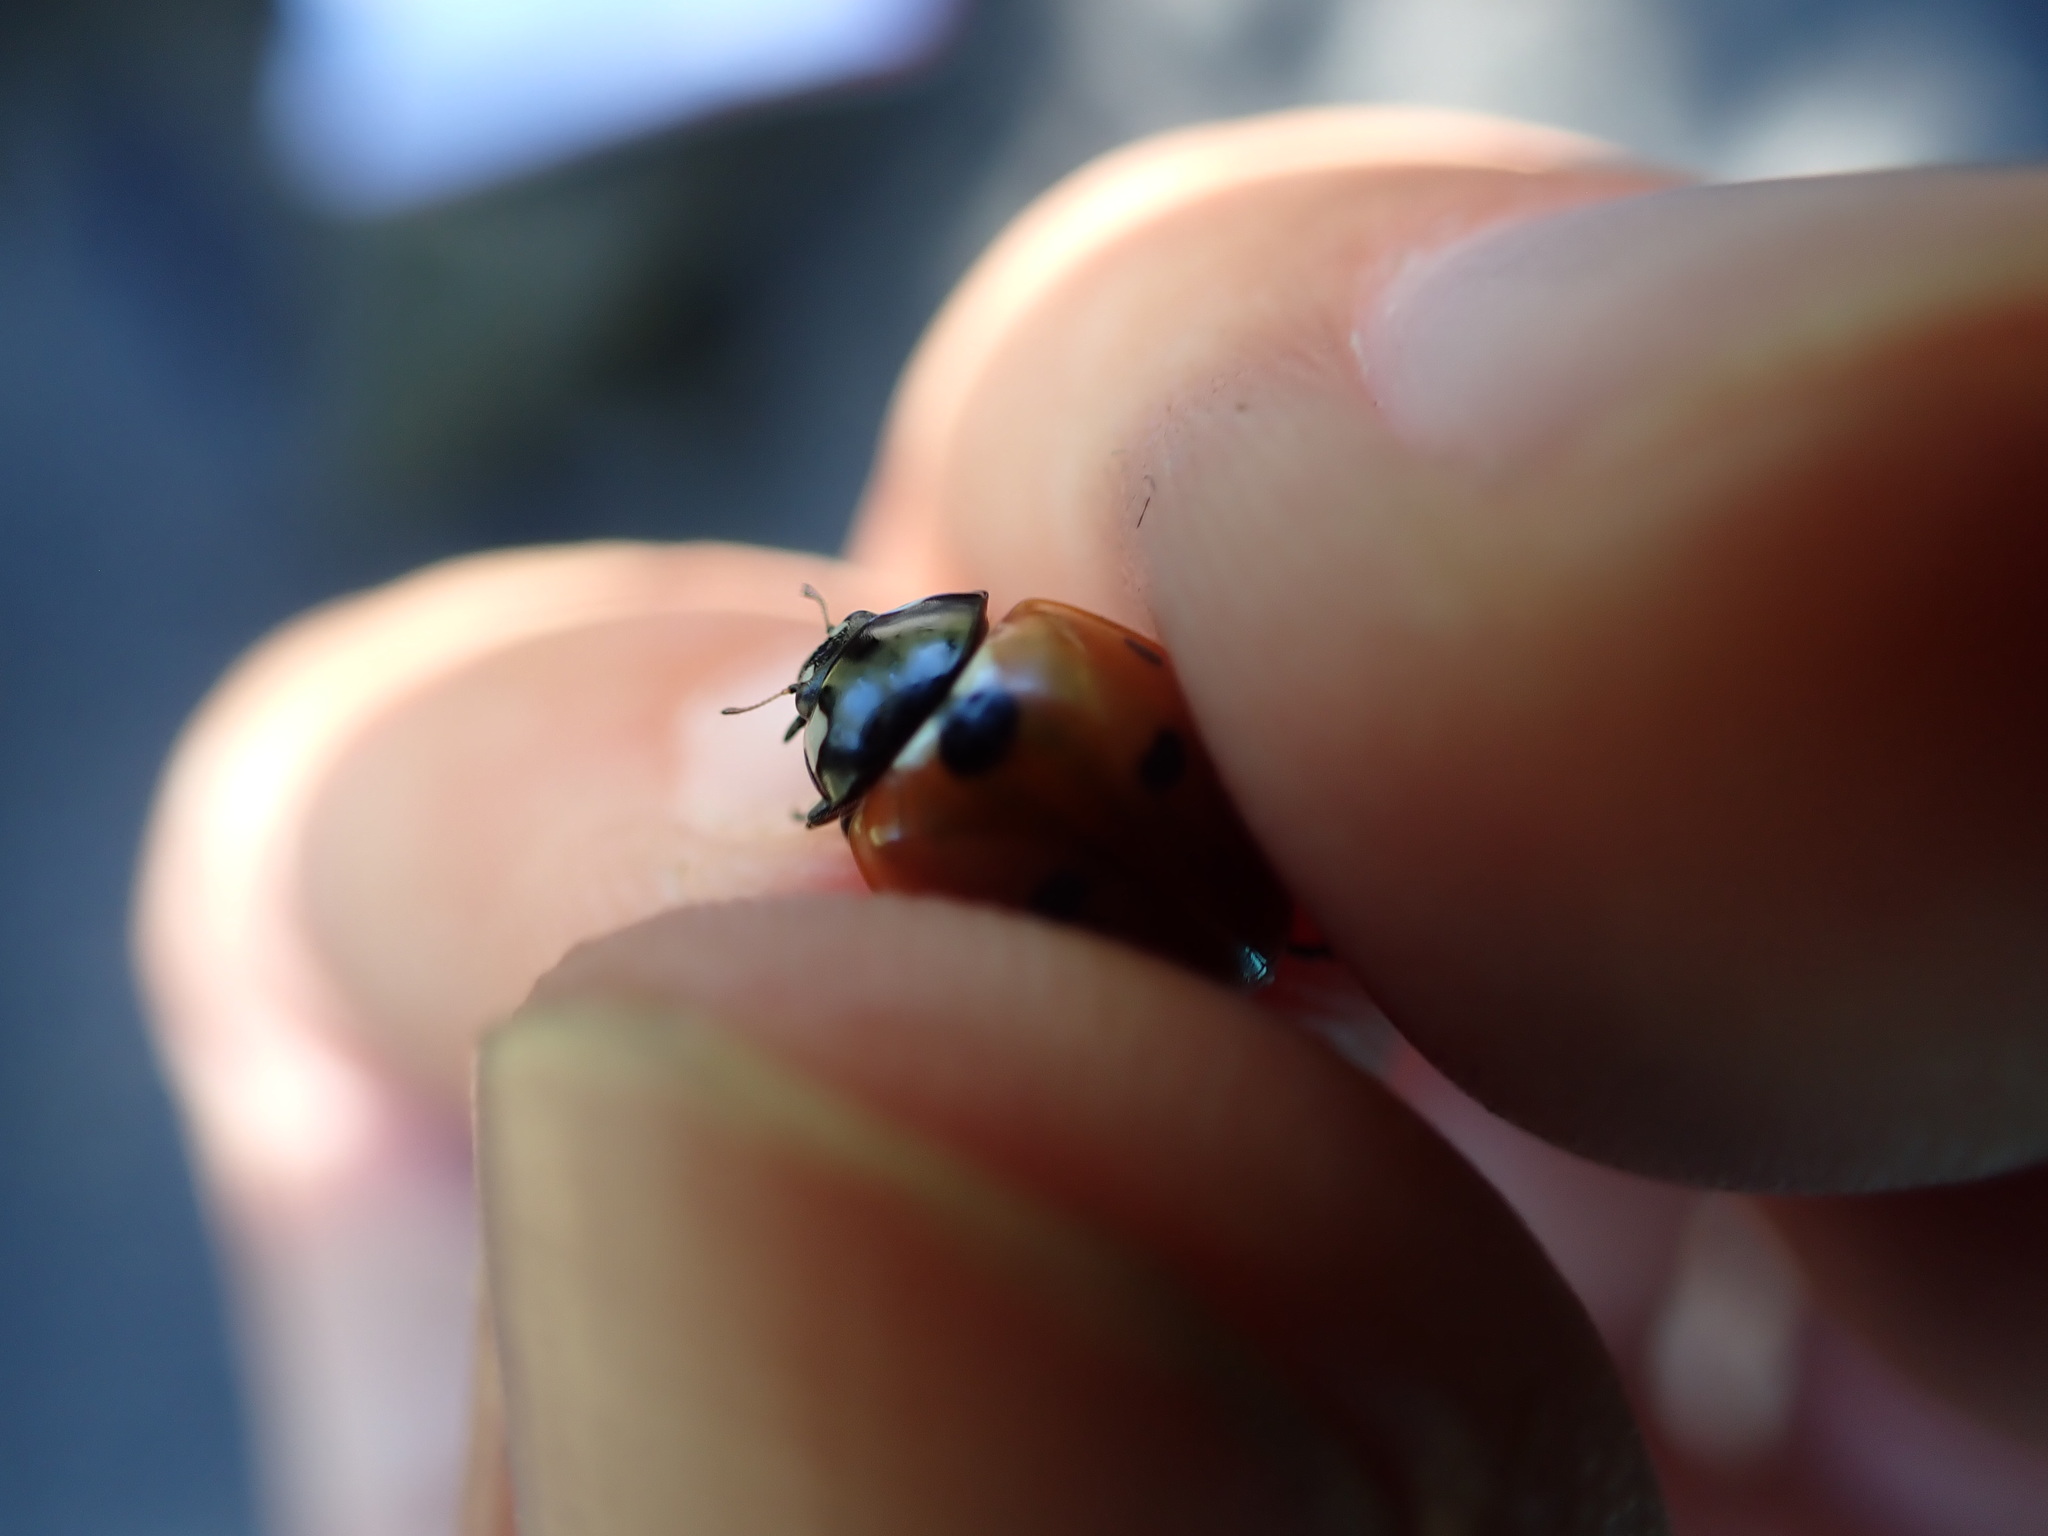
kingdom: Animalia
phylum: Arthropoda
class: Insecta
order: Coleoptera
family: Coccinellidae
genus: Coccinella
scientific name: Coccinella septempunctata
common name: Sevenspotted lady beetle
